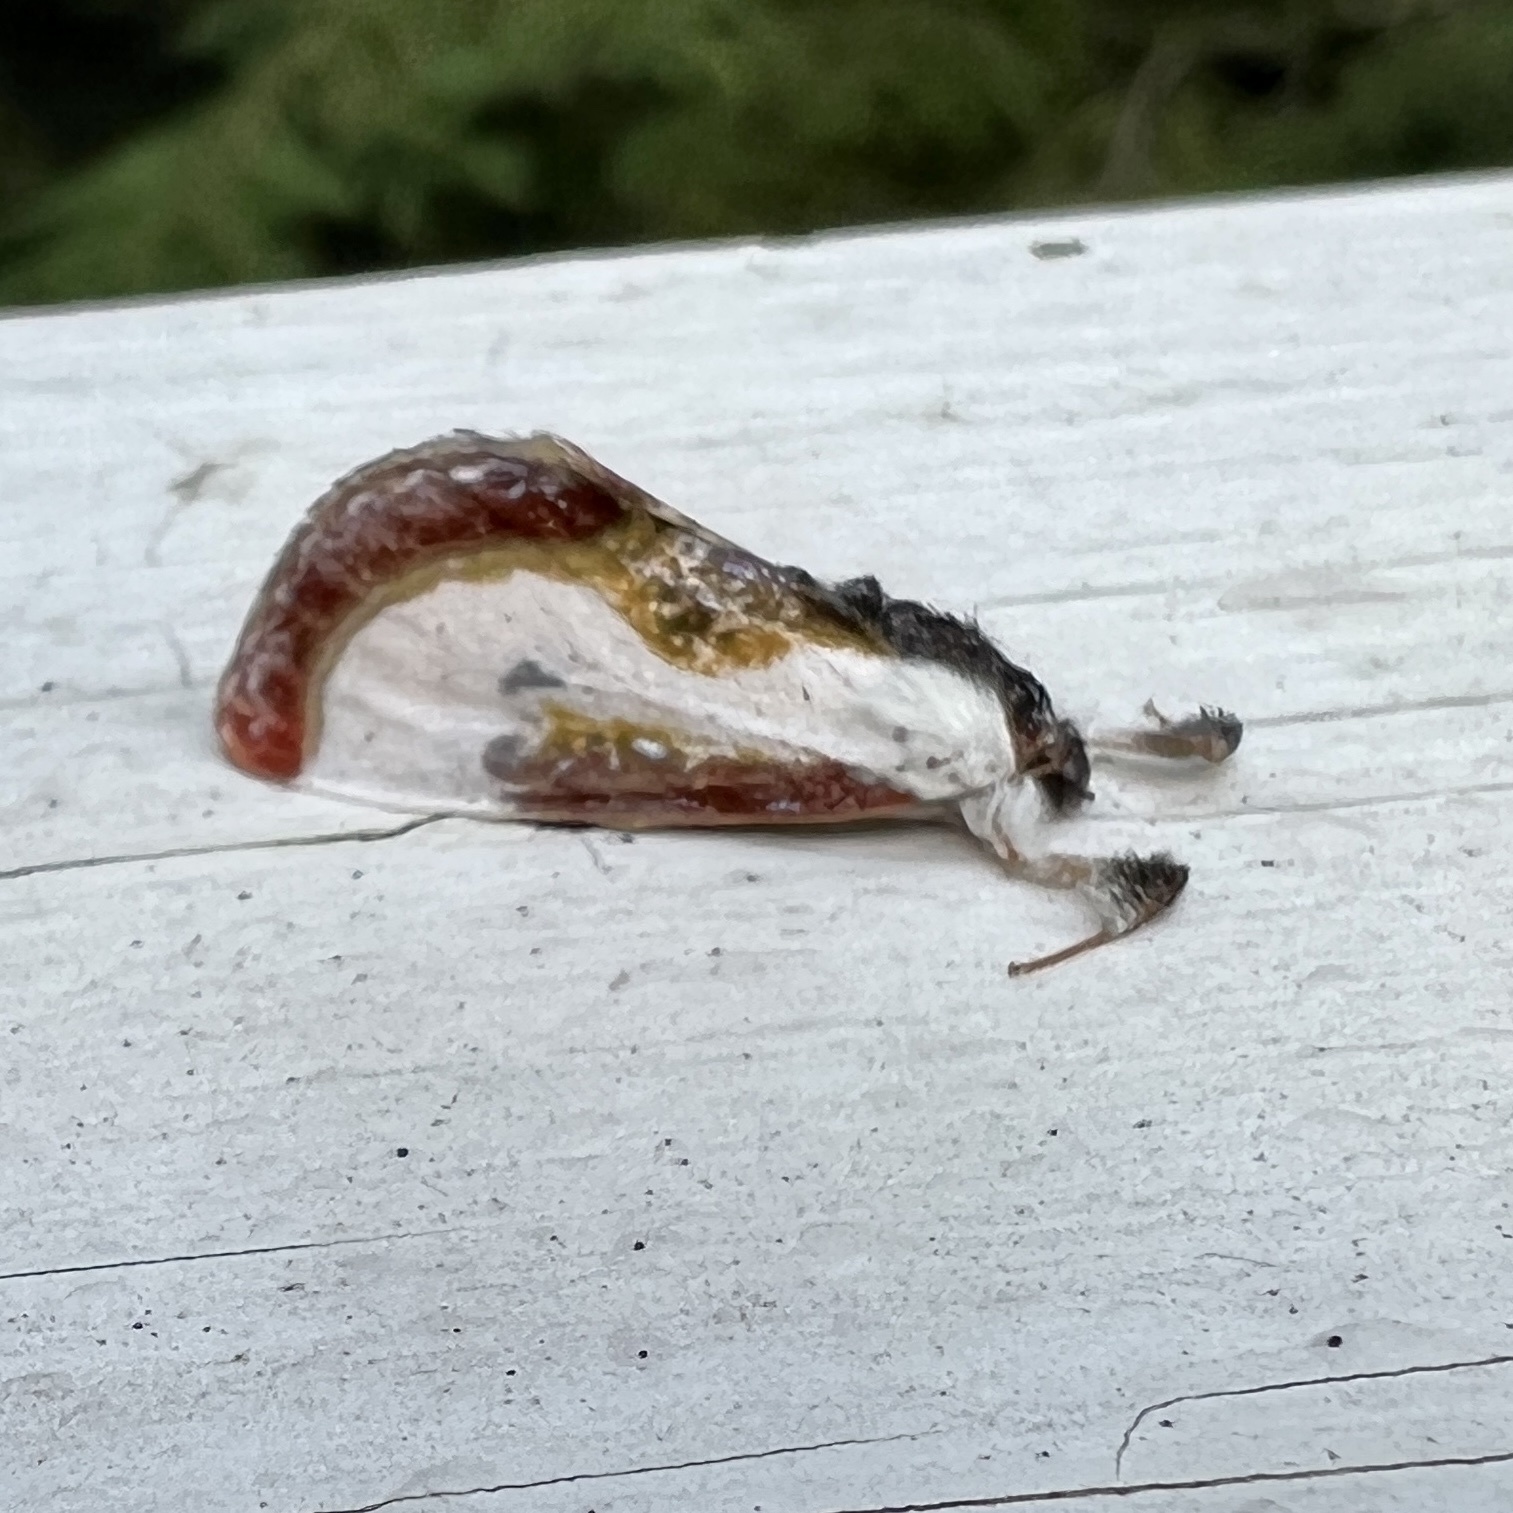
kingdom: Animalia
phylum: Arthropoda
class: Insecta
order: Lepidoptera
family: Noctuidae
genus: Eudryas
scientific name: Eudryas grata
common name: Beautiful wood-nymph
